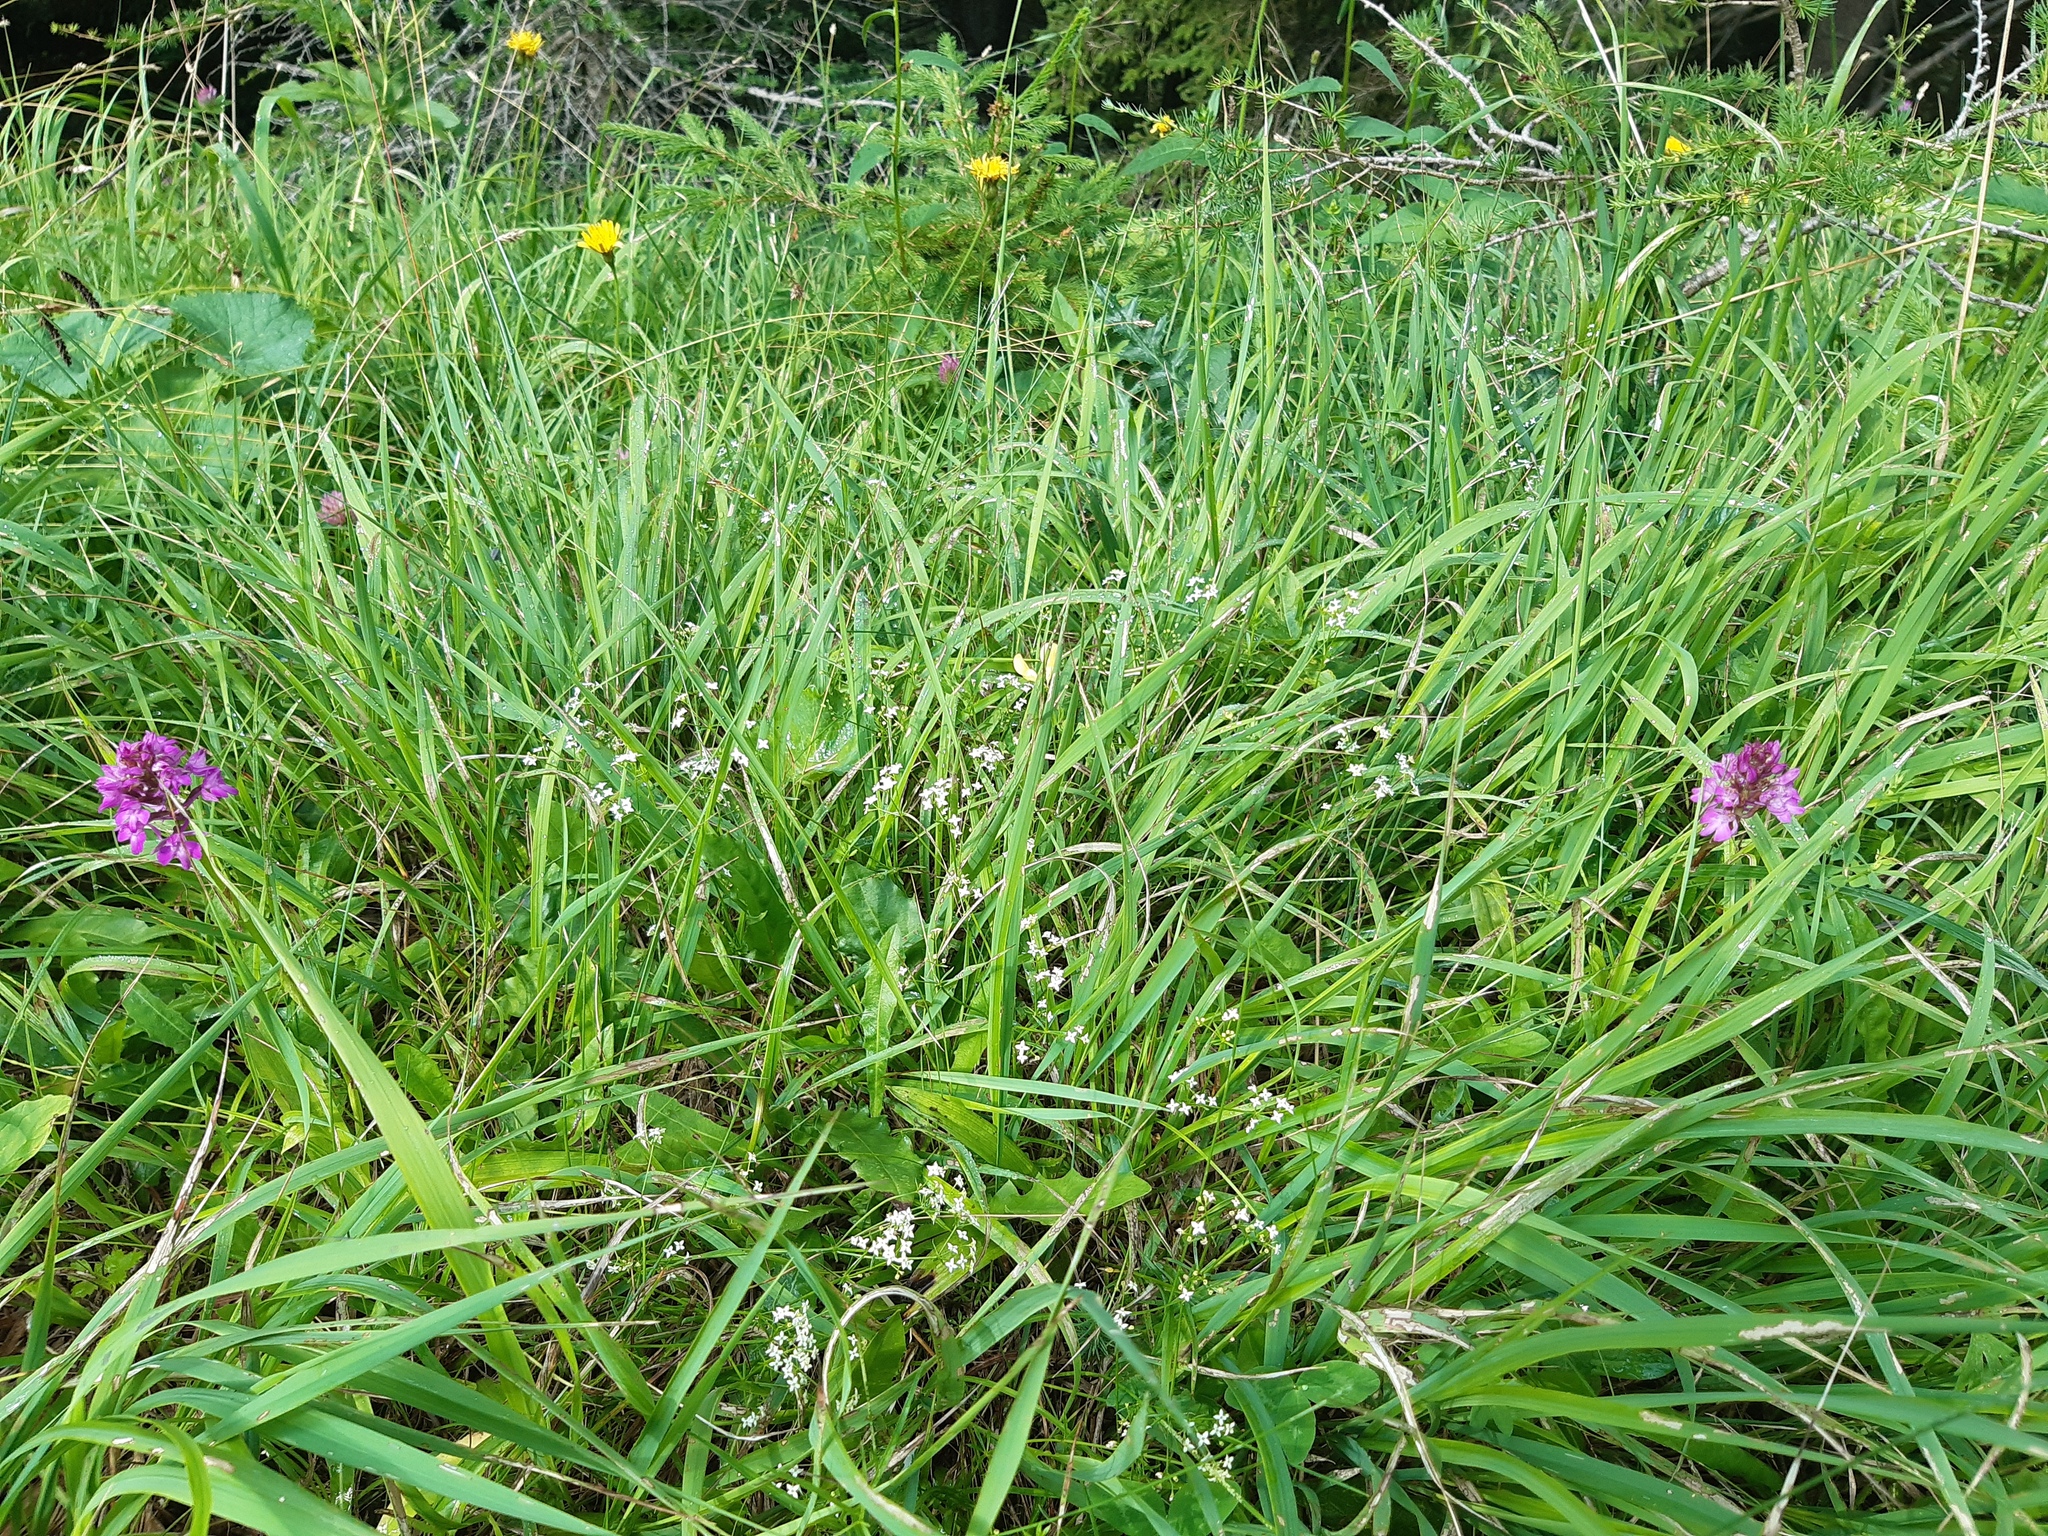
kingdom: Plantae
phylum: Tracheophyta
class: Liliopsida
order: Asparagales
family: Orchidaceae
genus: Anacamptis
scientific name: Anacamptis pyramidalis
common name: Pyramidal orchid
